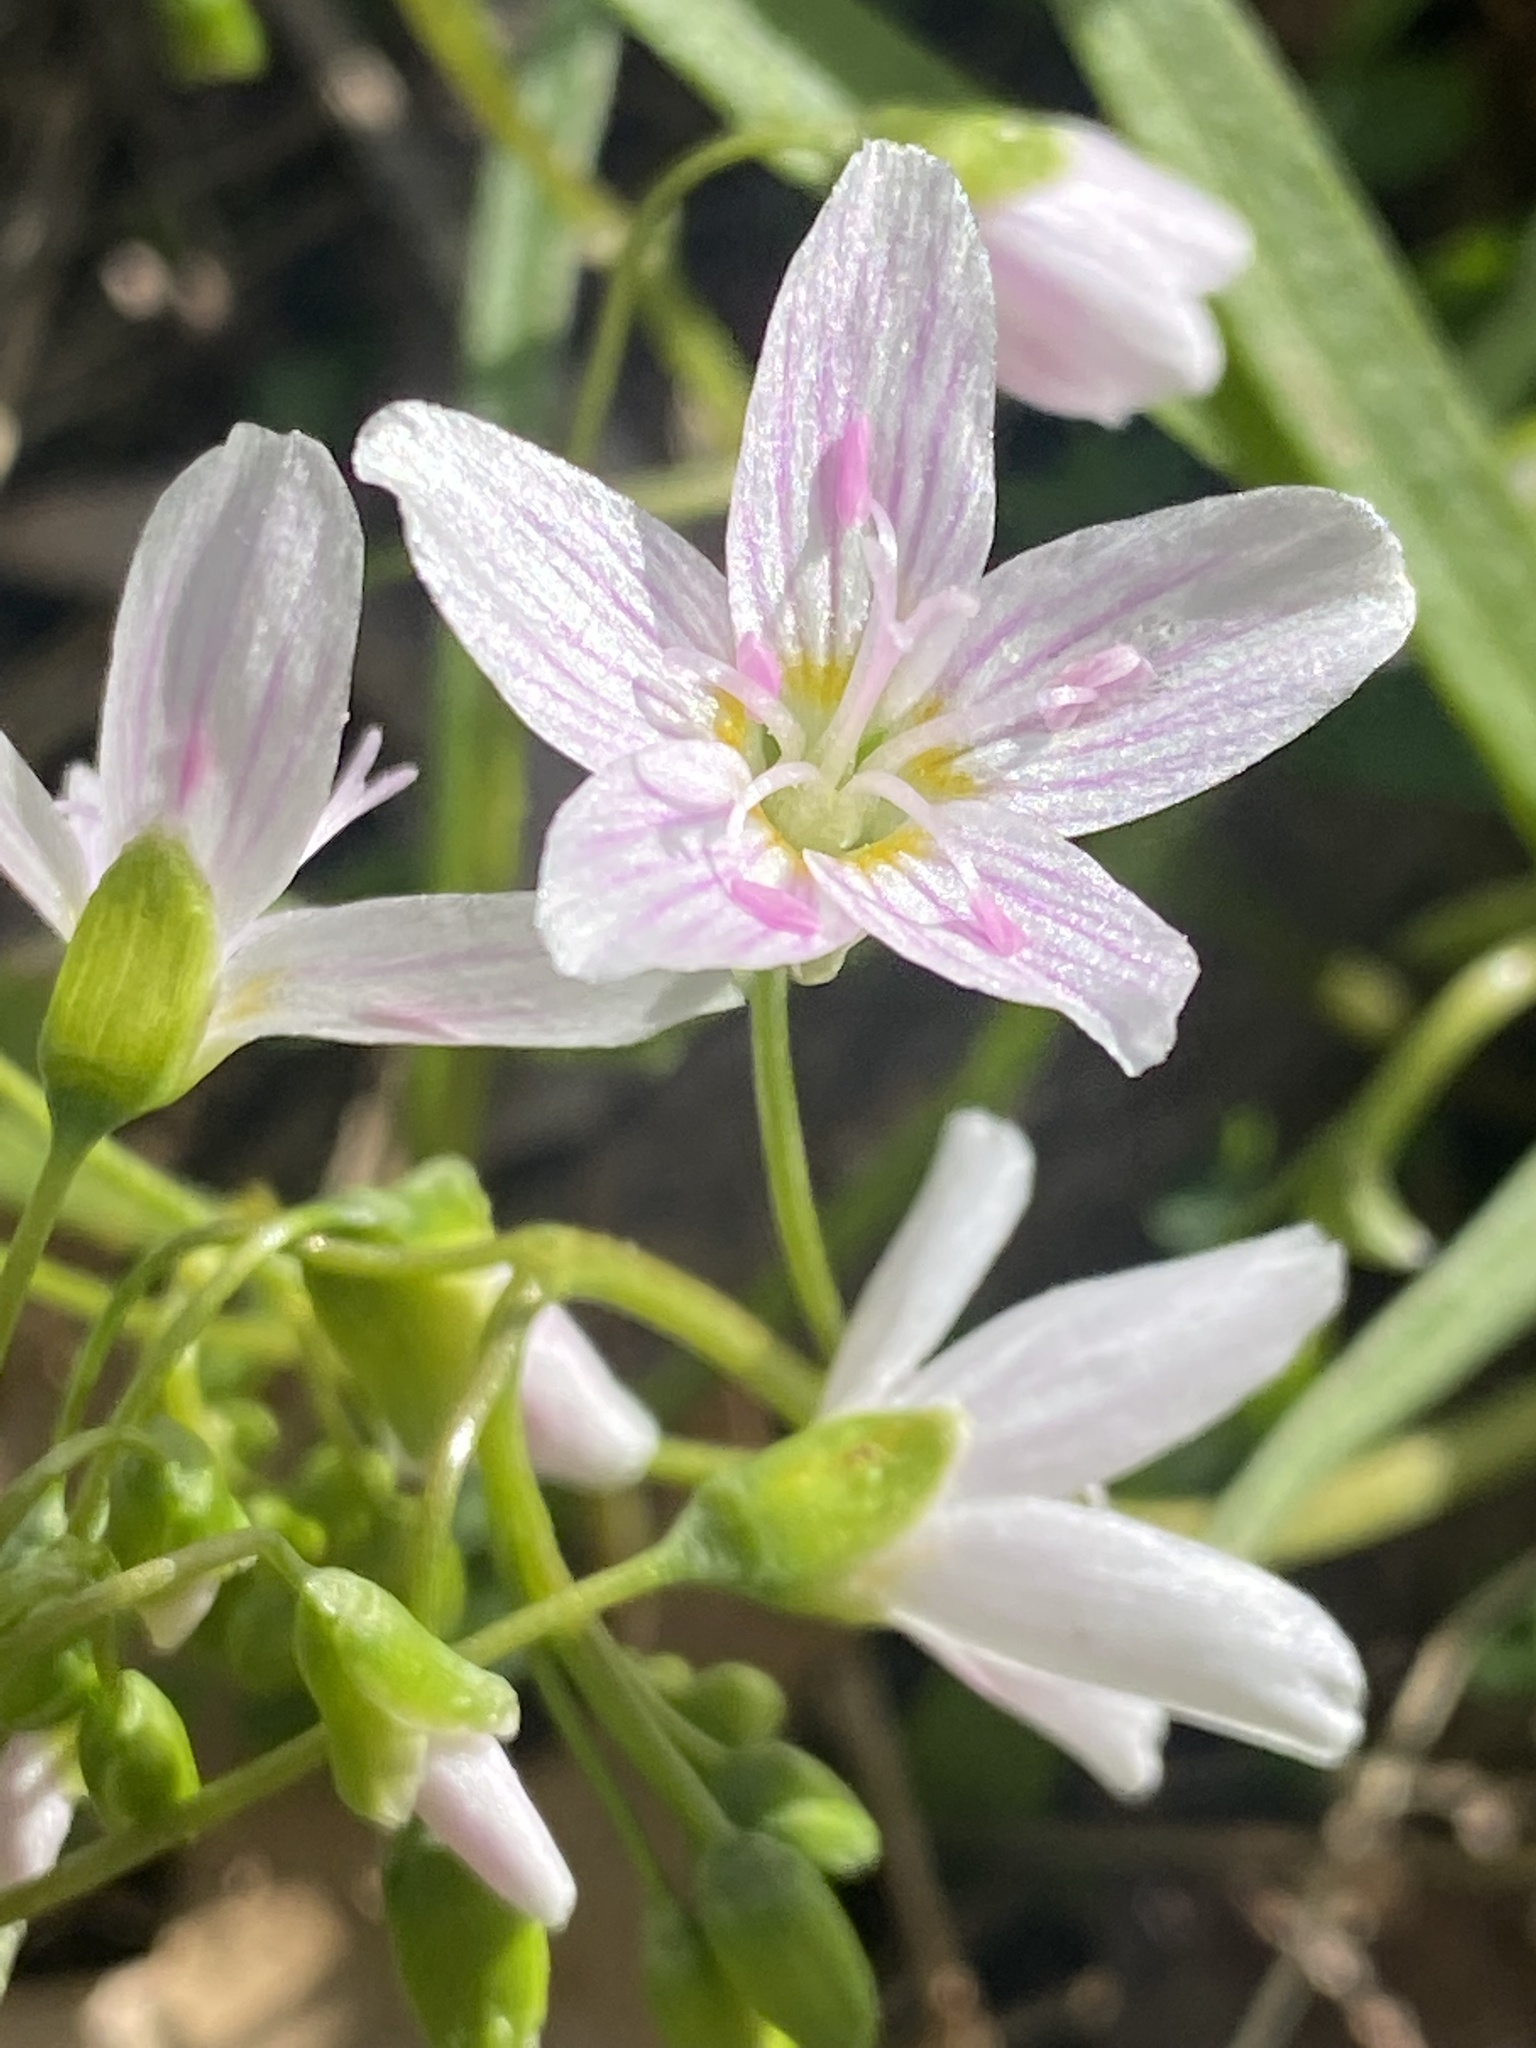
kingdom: Plantae
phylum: Tracheophyta
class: Magnoliopsida
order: Caryophyllales
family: Montiaceae
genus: Claytonia
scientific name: Claytonia virginica
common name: Virginia springbeauty
